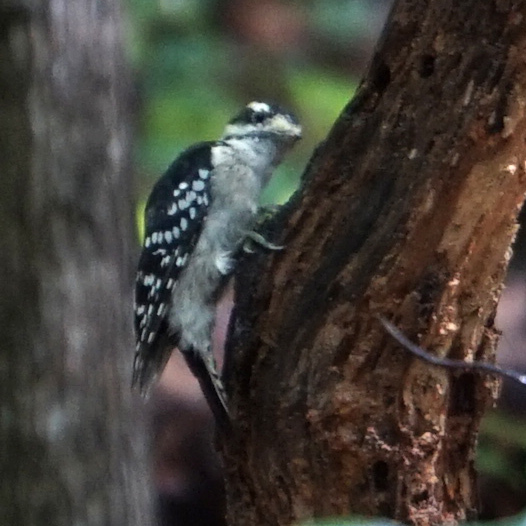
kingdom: Animalia
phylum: Chordata
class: Aves
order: Piciformes
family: Picidae
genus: Dryobates
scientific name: Dryobates pubescens
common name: Downy woodpecker
